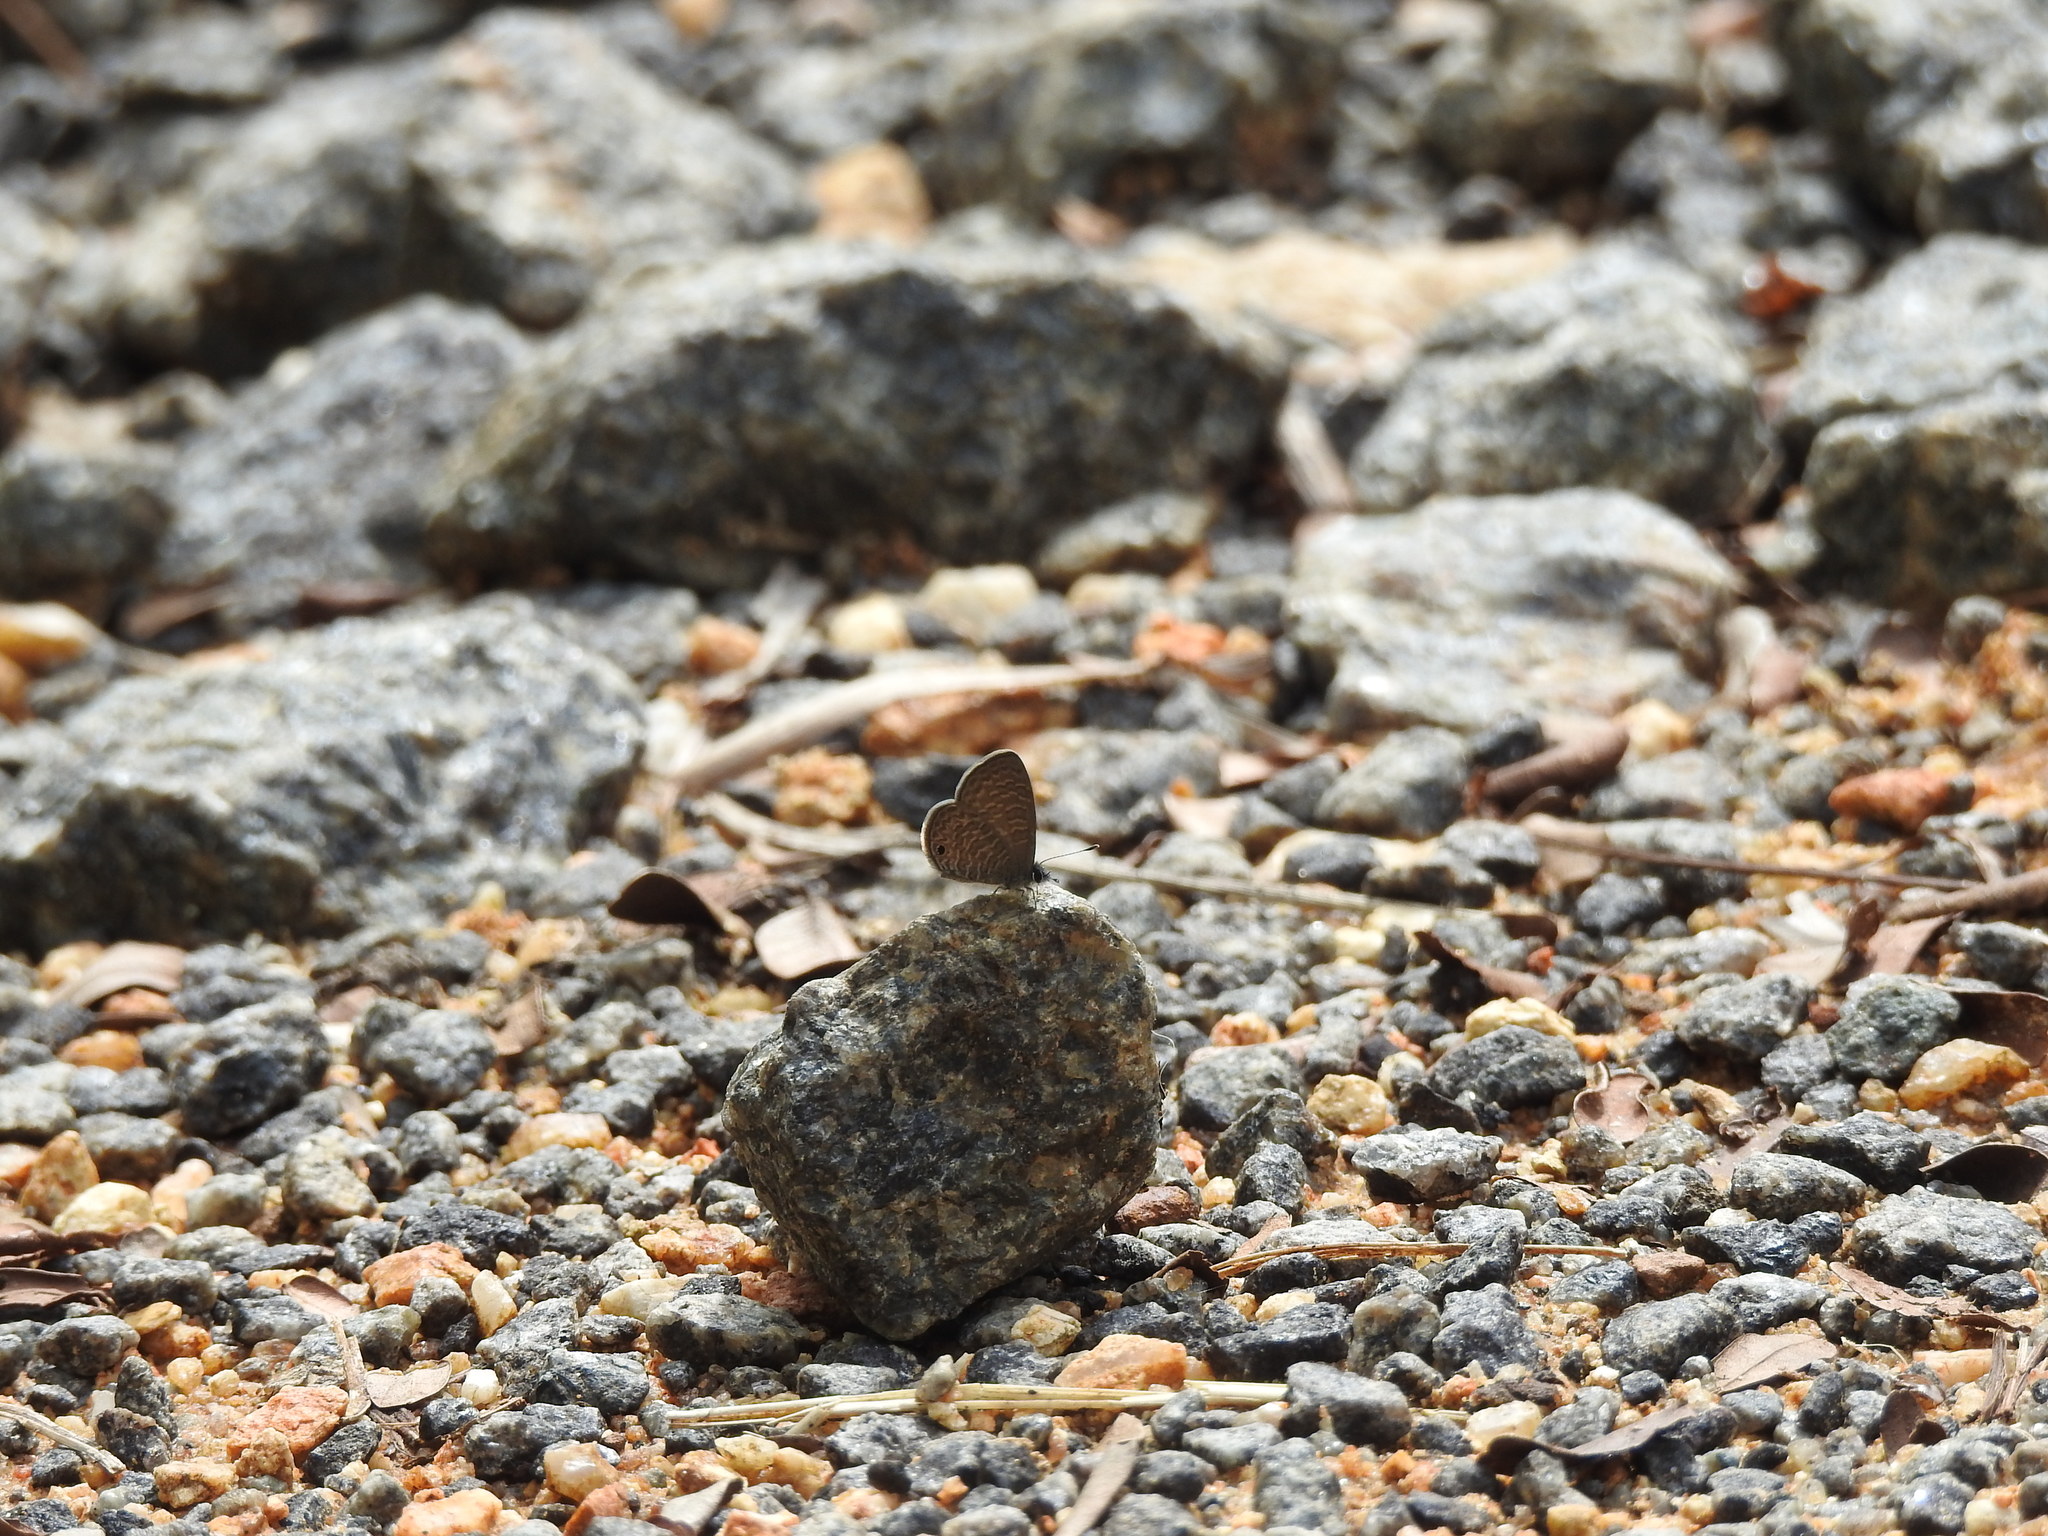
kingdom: Animalia
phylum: Arthropoda
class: Insecta
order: Lepidoptera
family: Lycaenidae
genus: Prosotas
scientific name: Prosotas dubiosa
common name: Tailless lineblue
